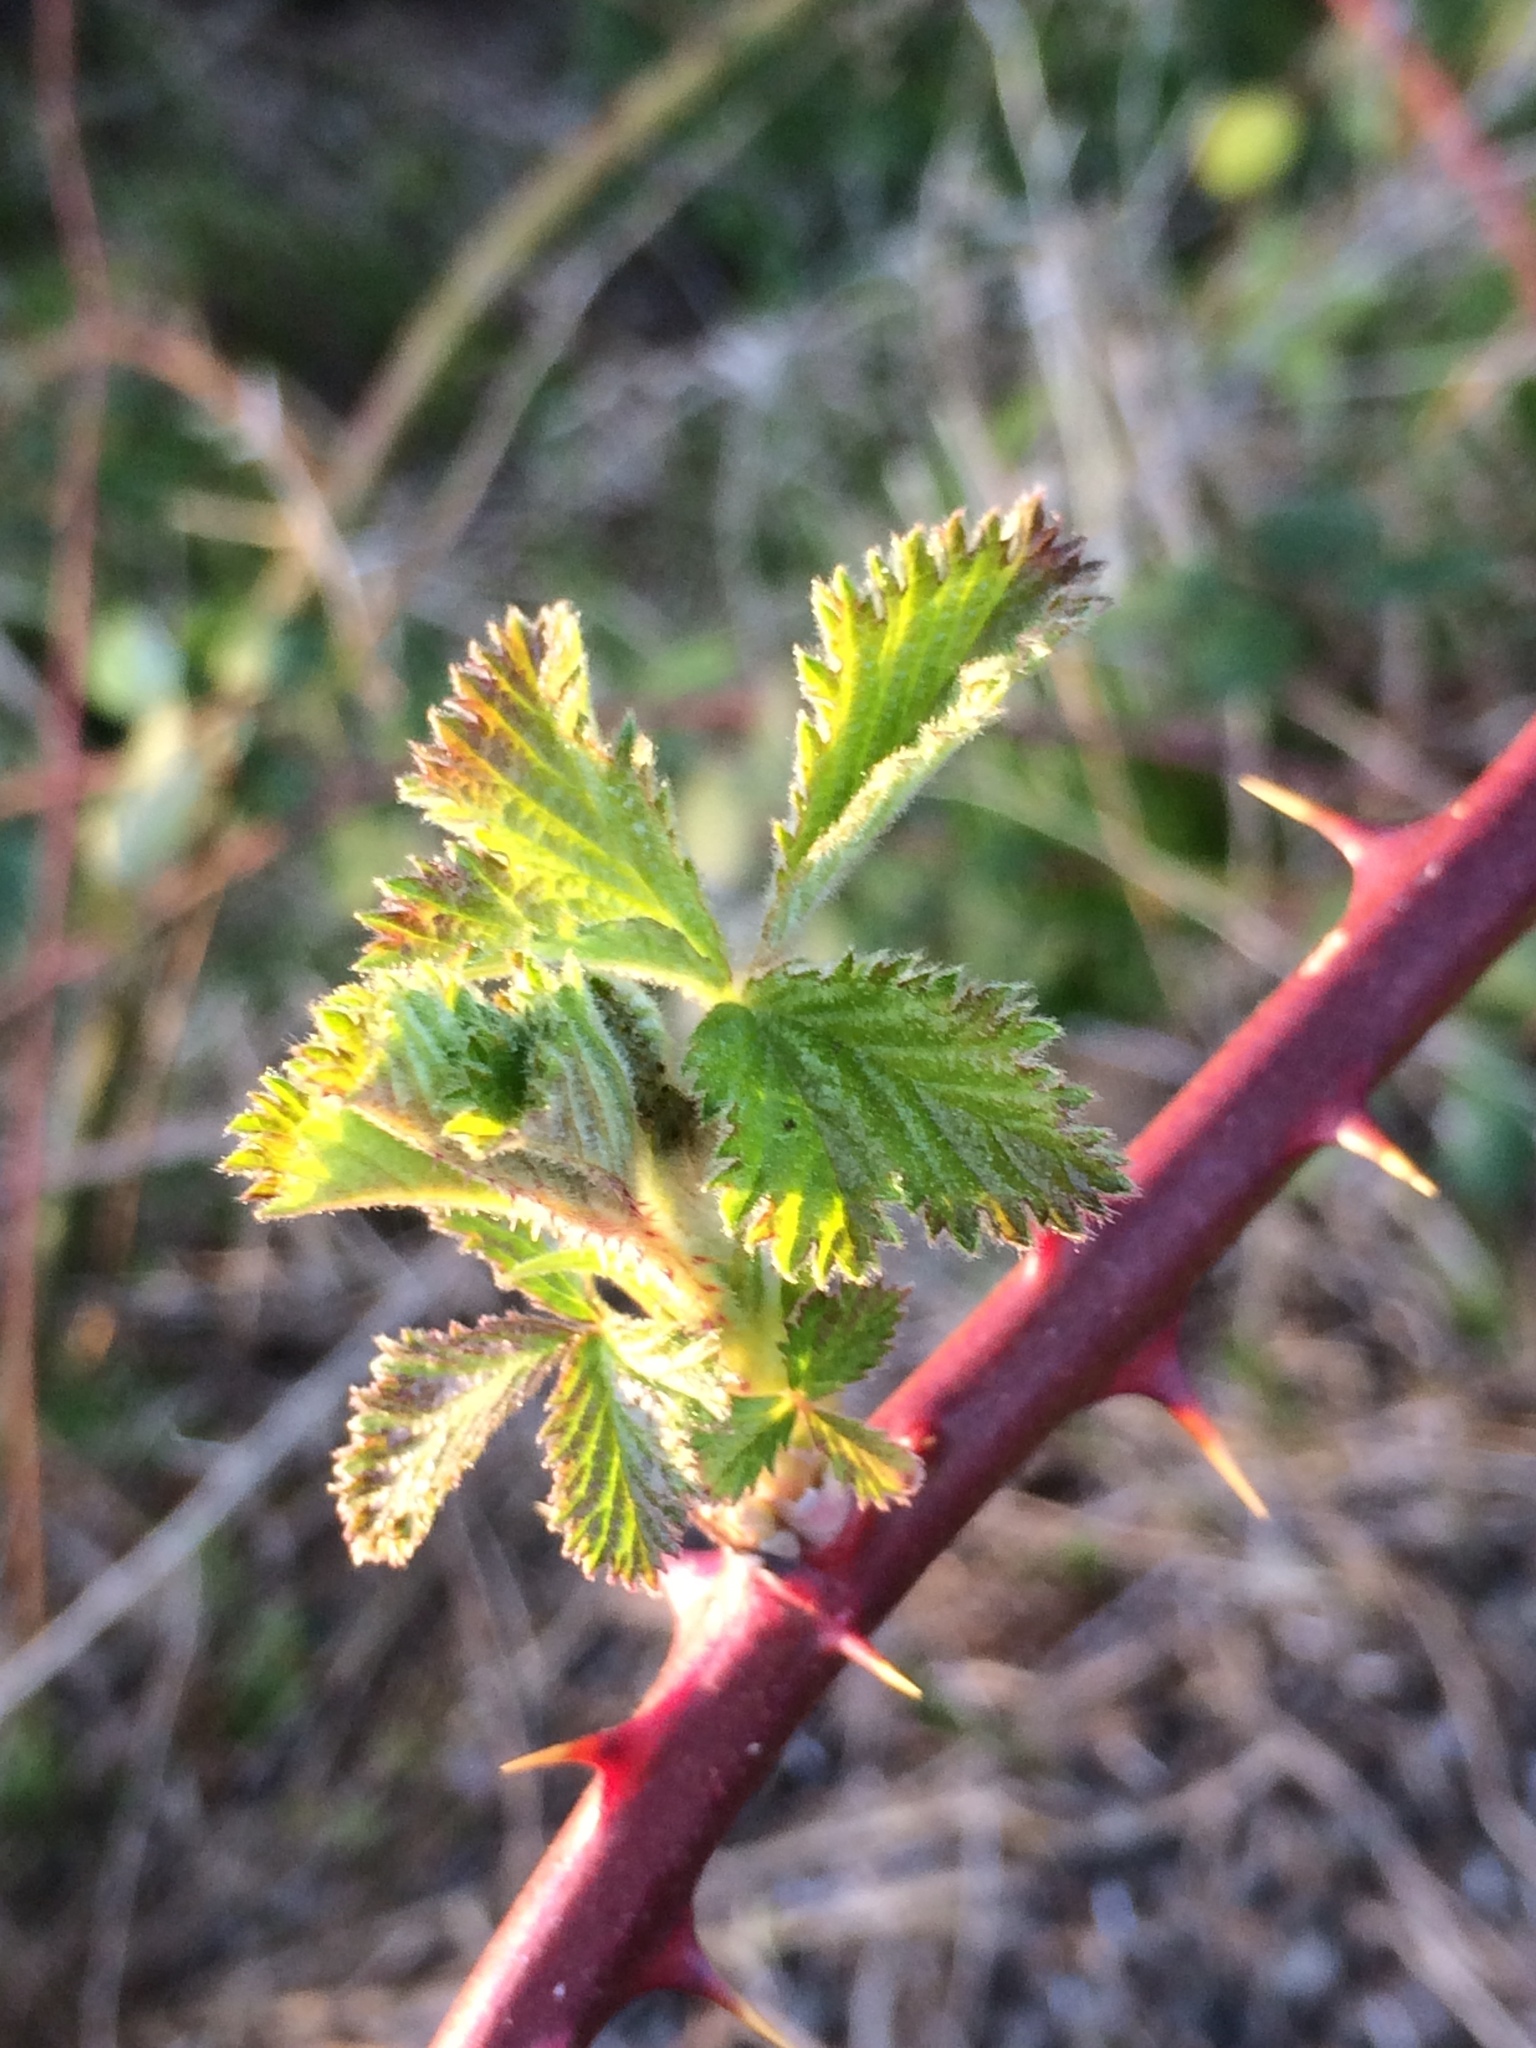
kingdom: Plantae
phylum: Tracheophyta
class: Magnoliopsida
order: Rosales
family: Rosaceae
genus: Rubus
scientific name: Rubus armeniacus
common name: Himalayan blackberry
